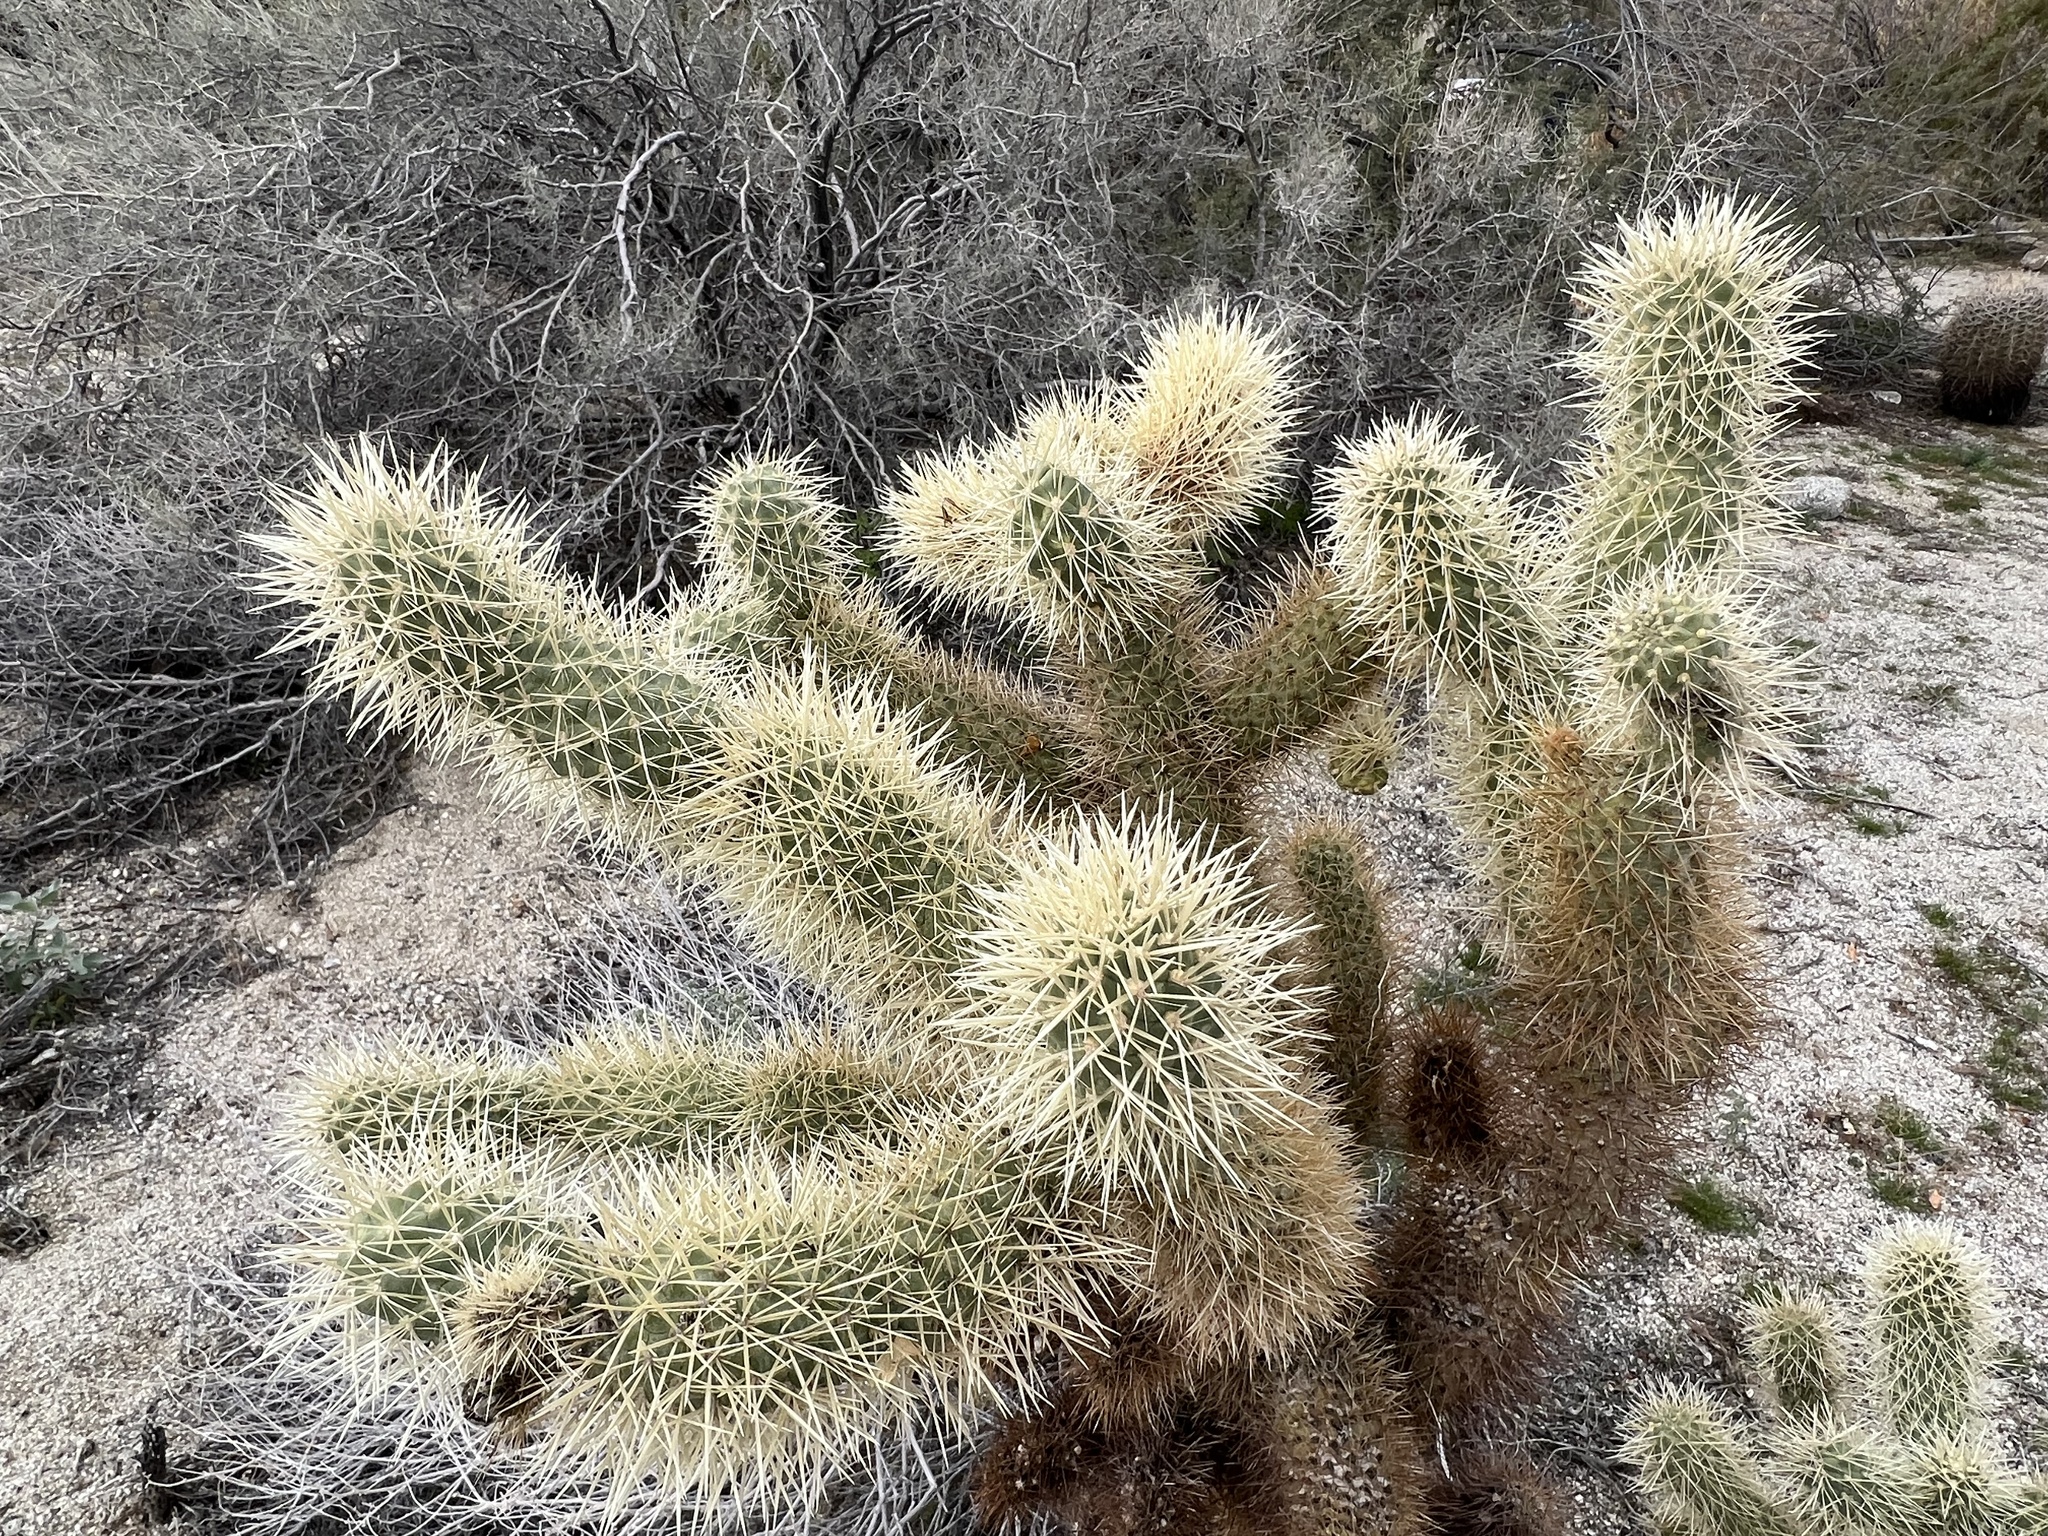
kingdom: Plantae
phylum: Tracheophyta
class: Magnoliopsida
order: Caryophyllales
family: Cactaceae
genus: Cylindropuntia
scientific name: Cylindropuntia fosbergii
